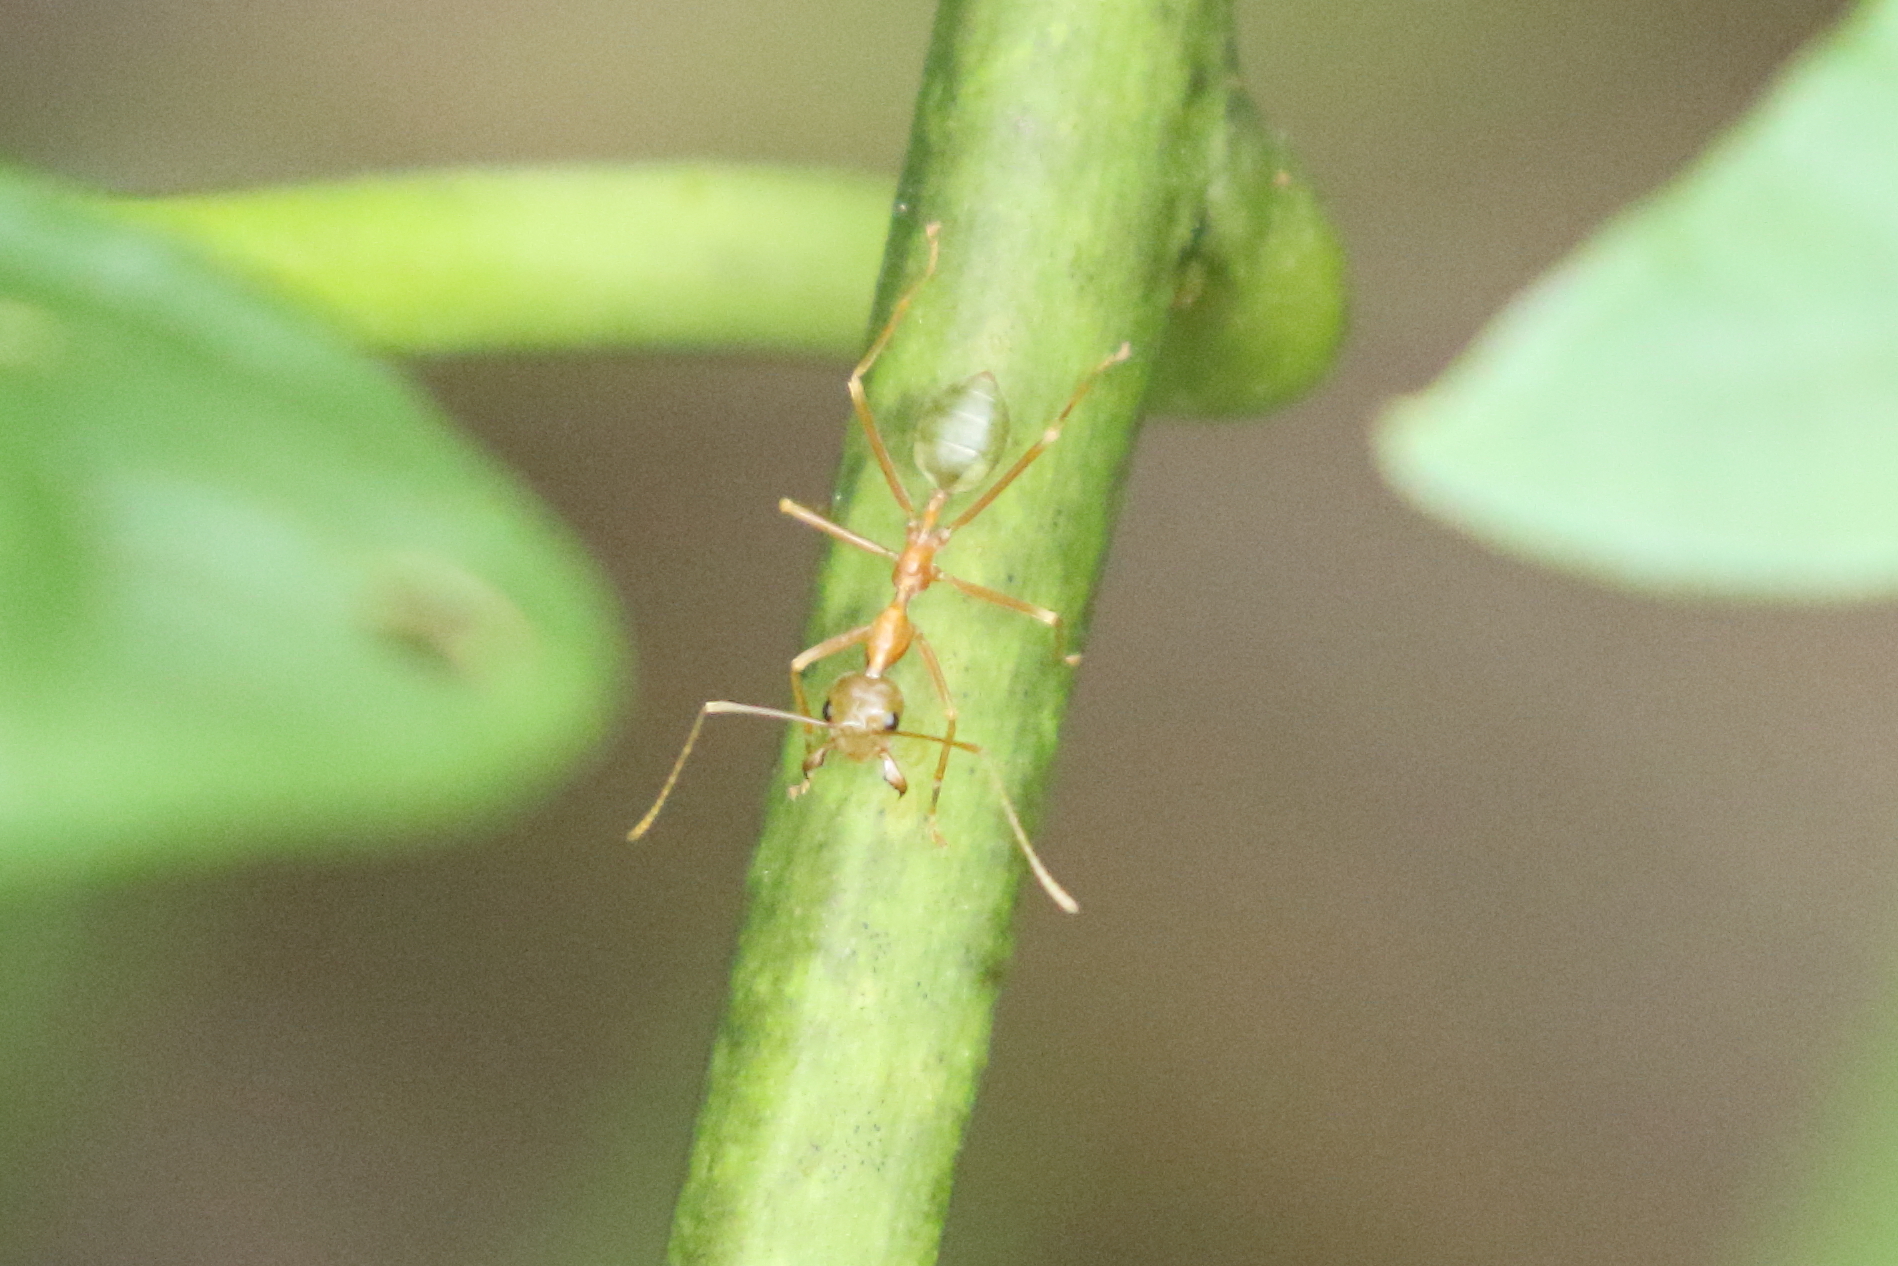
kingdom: Animalia
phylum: Arthropoda
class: Insecta
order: Hymenoptera
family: Formicidae
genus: Oecophylla
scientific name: Oecophylla smaragdina
